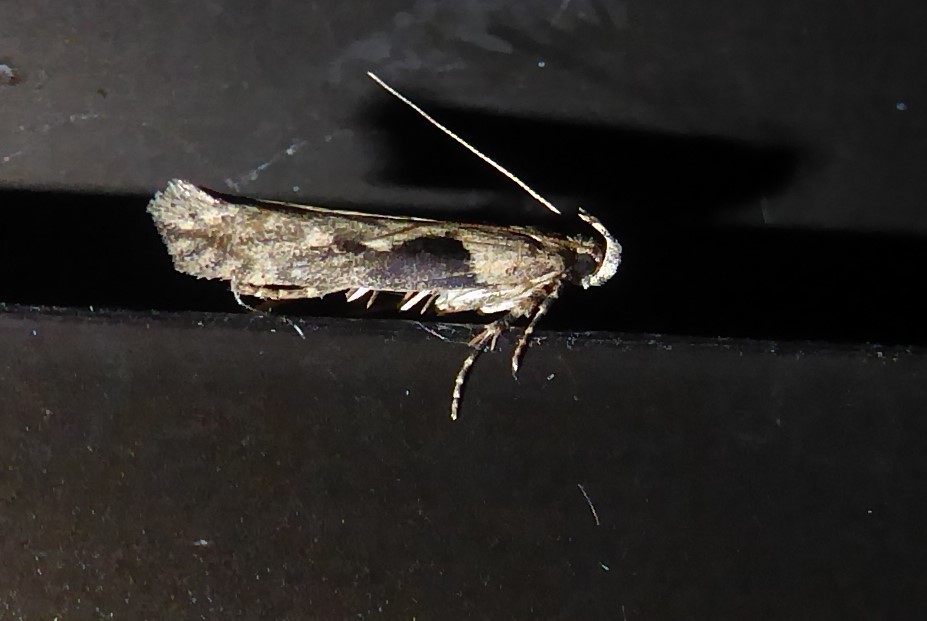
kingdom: Animalia
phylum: Arthropoda
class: Insecta
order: Lepidoptera
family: Gelechiidae
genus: Symmetrischema
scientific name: Symmetrischema tangolias
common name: Moth
